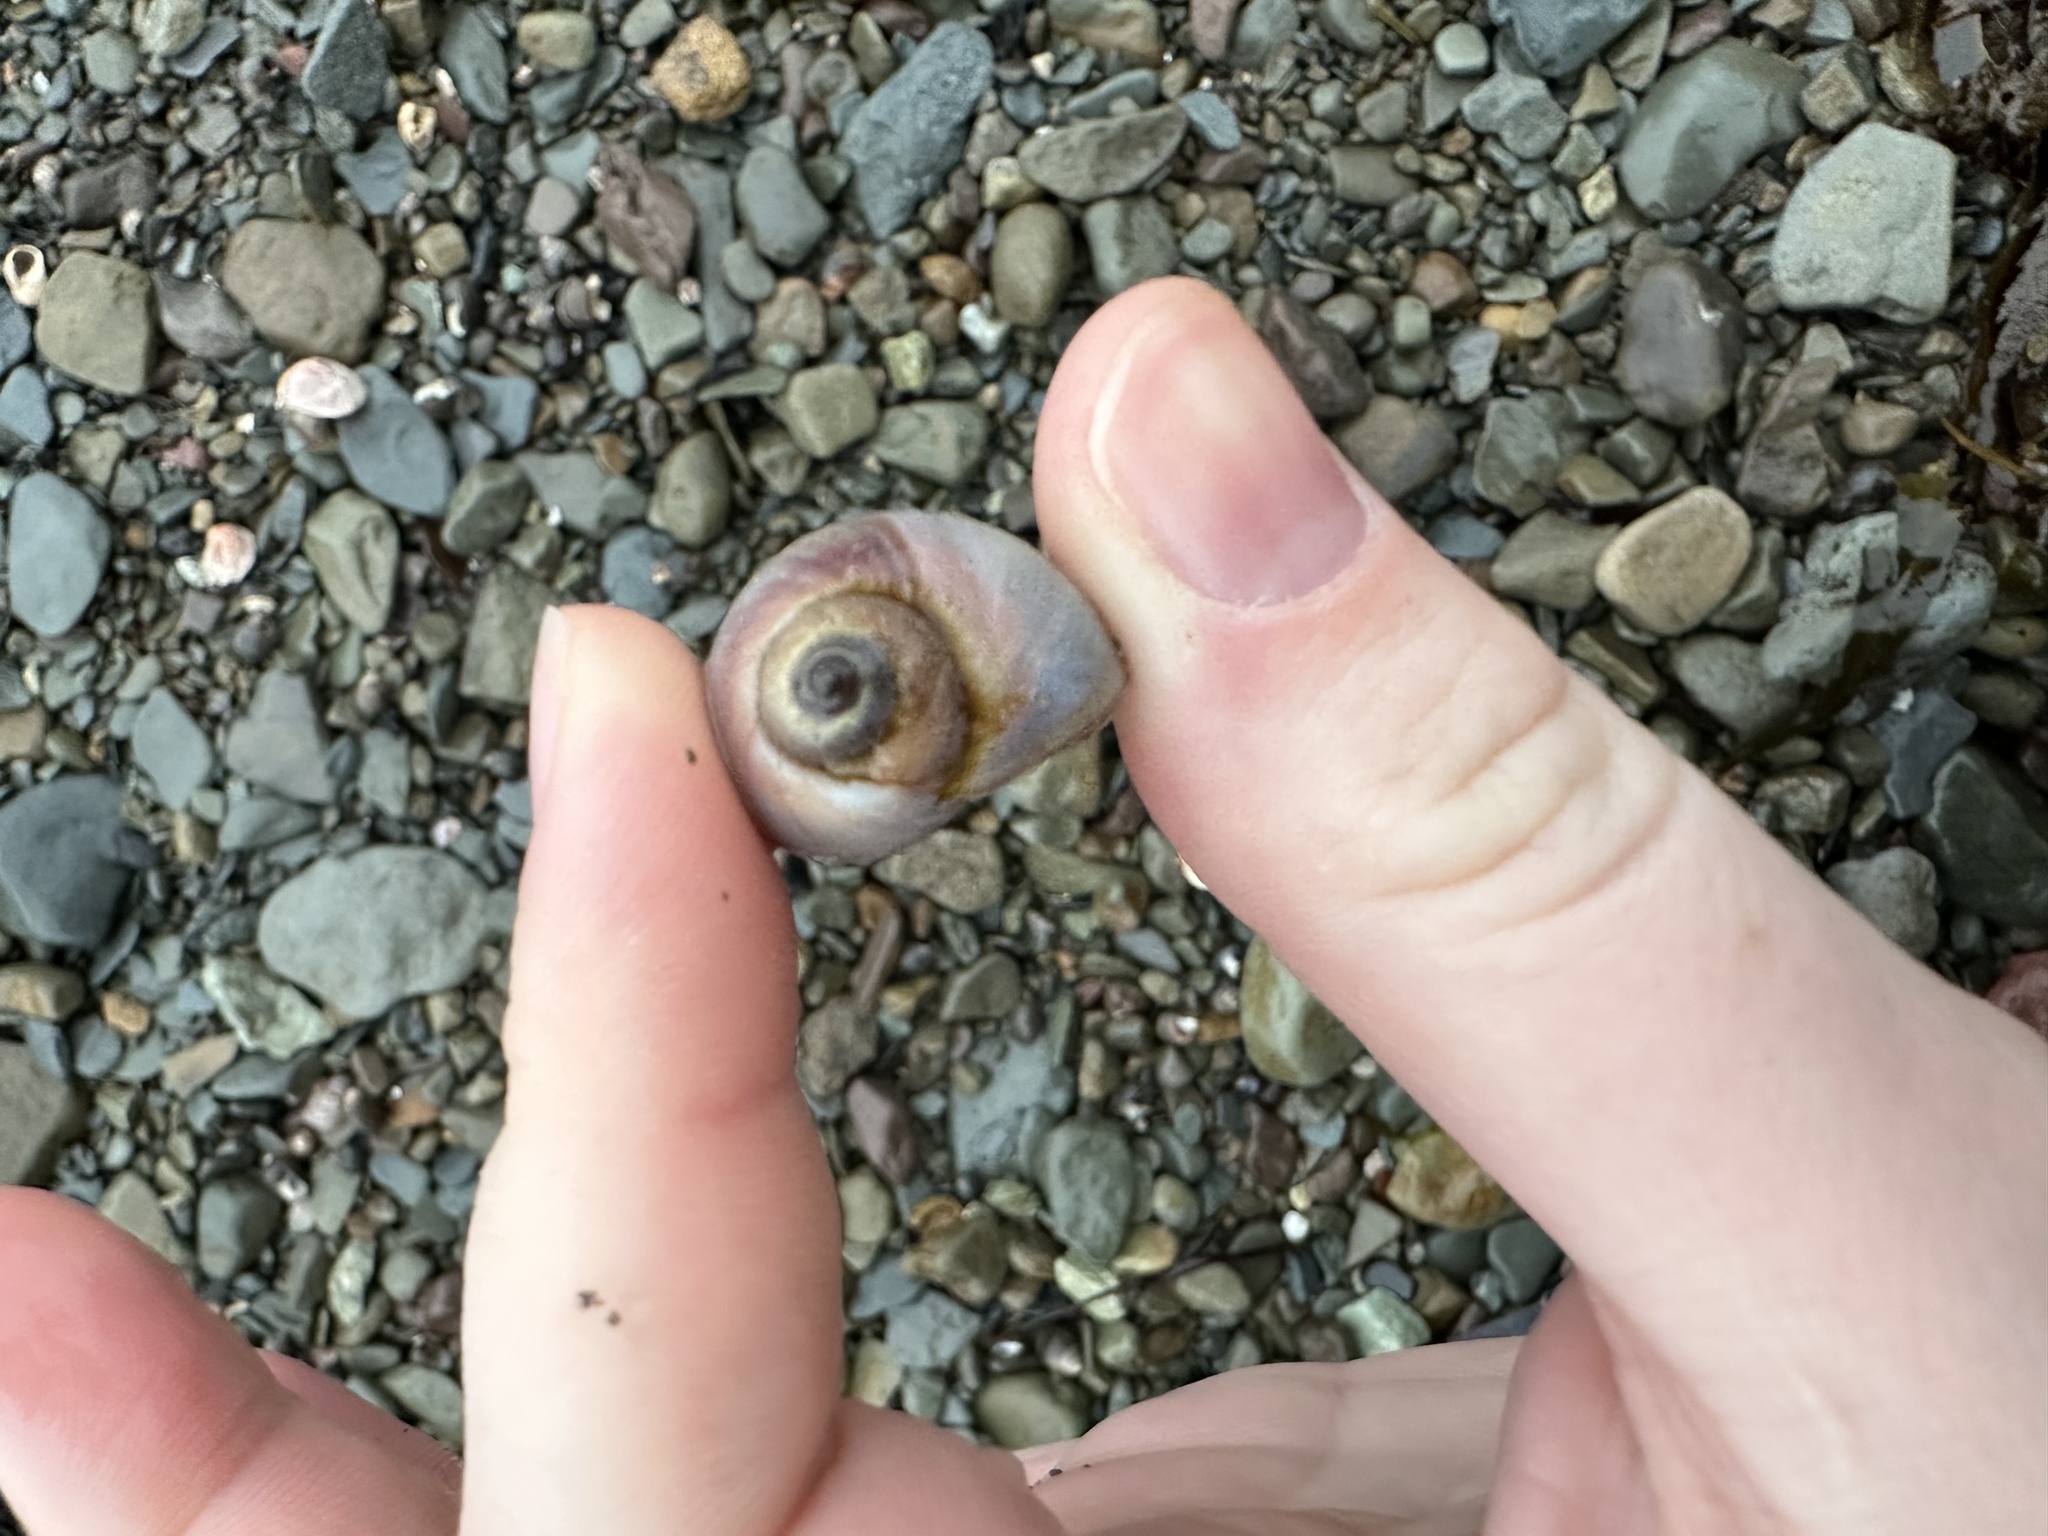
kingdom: Animalia
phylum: Mollusca
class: Gastropoda
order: Littorinimorpha
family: Naticidae
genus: Euspira
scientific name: Euspira heros
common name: Common northern moonsnail
